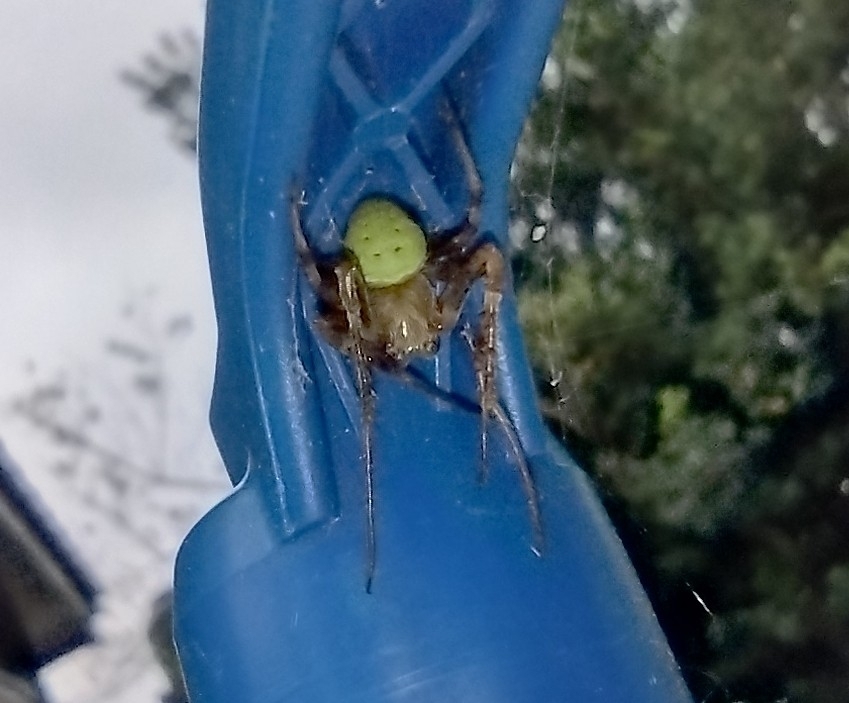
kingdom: Animalia
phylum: Arthropoda
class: Arachnida
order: Araneae
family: Araneidae
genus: Araneus
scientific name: Araneus lathyrinus
